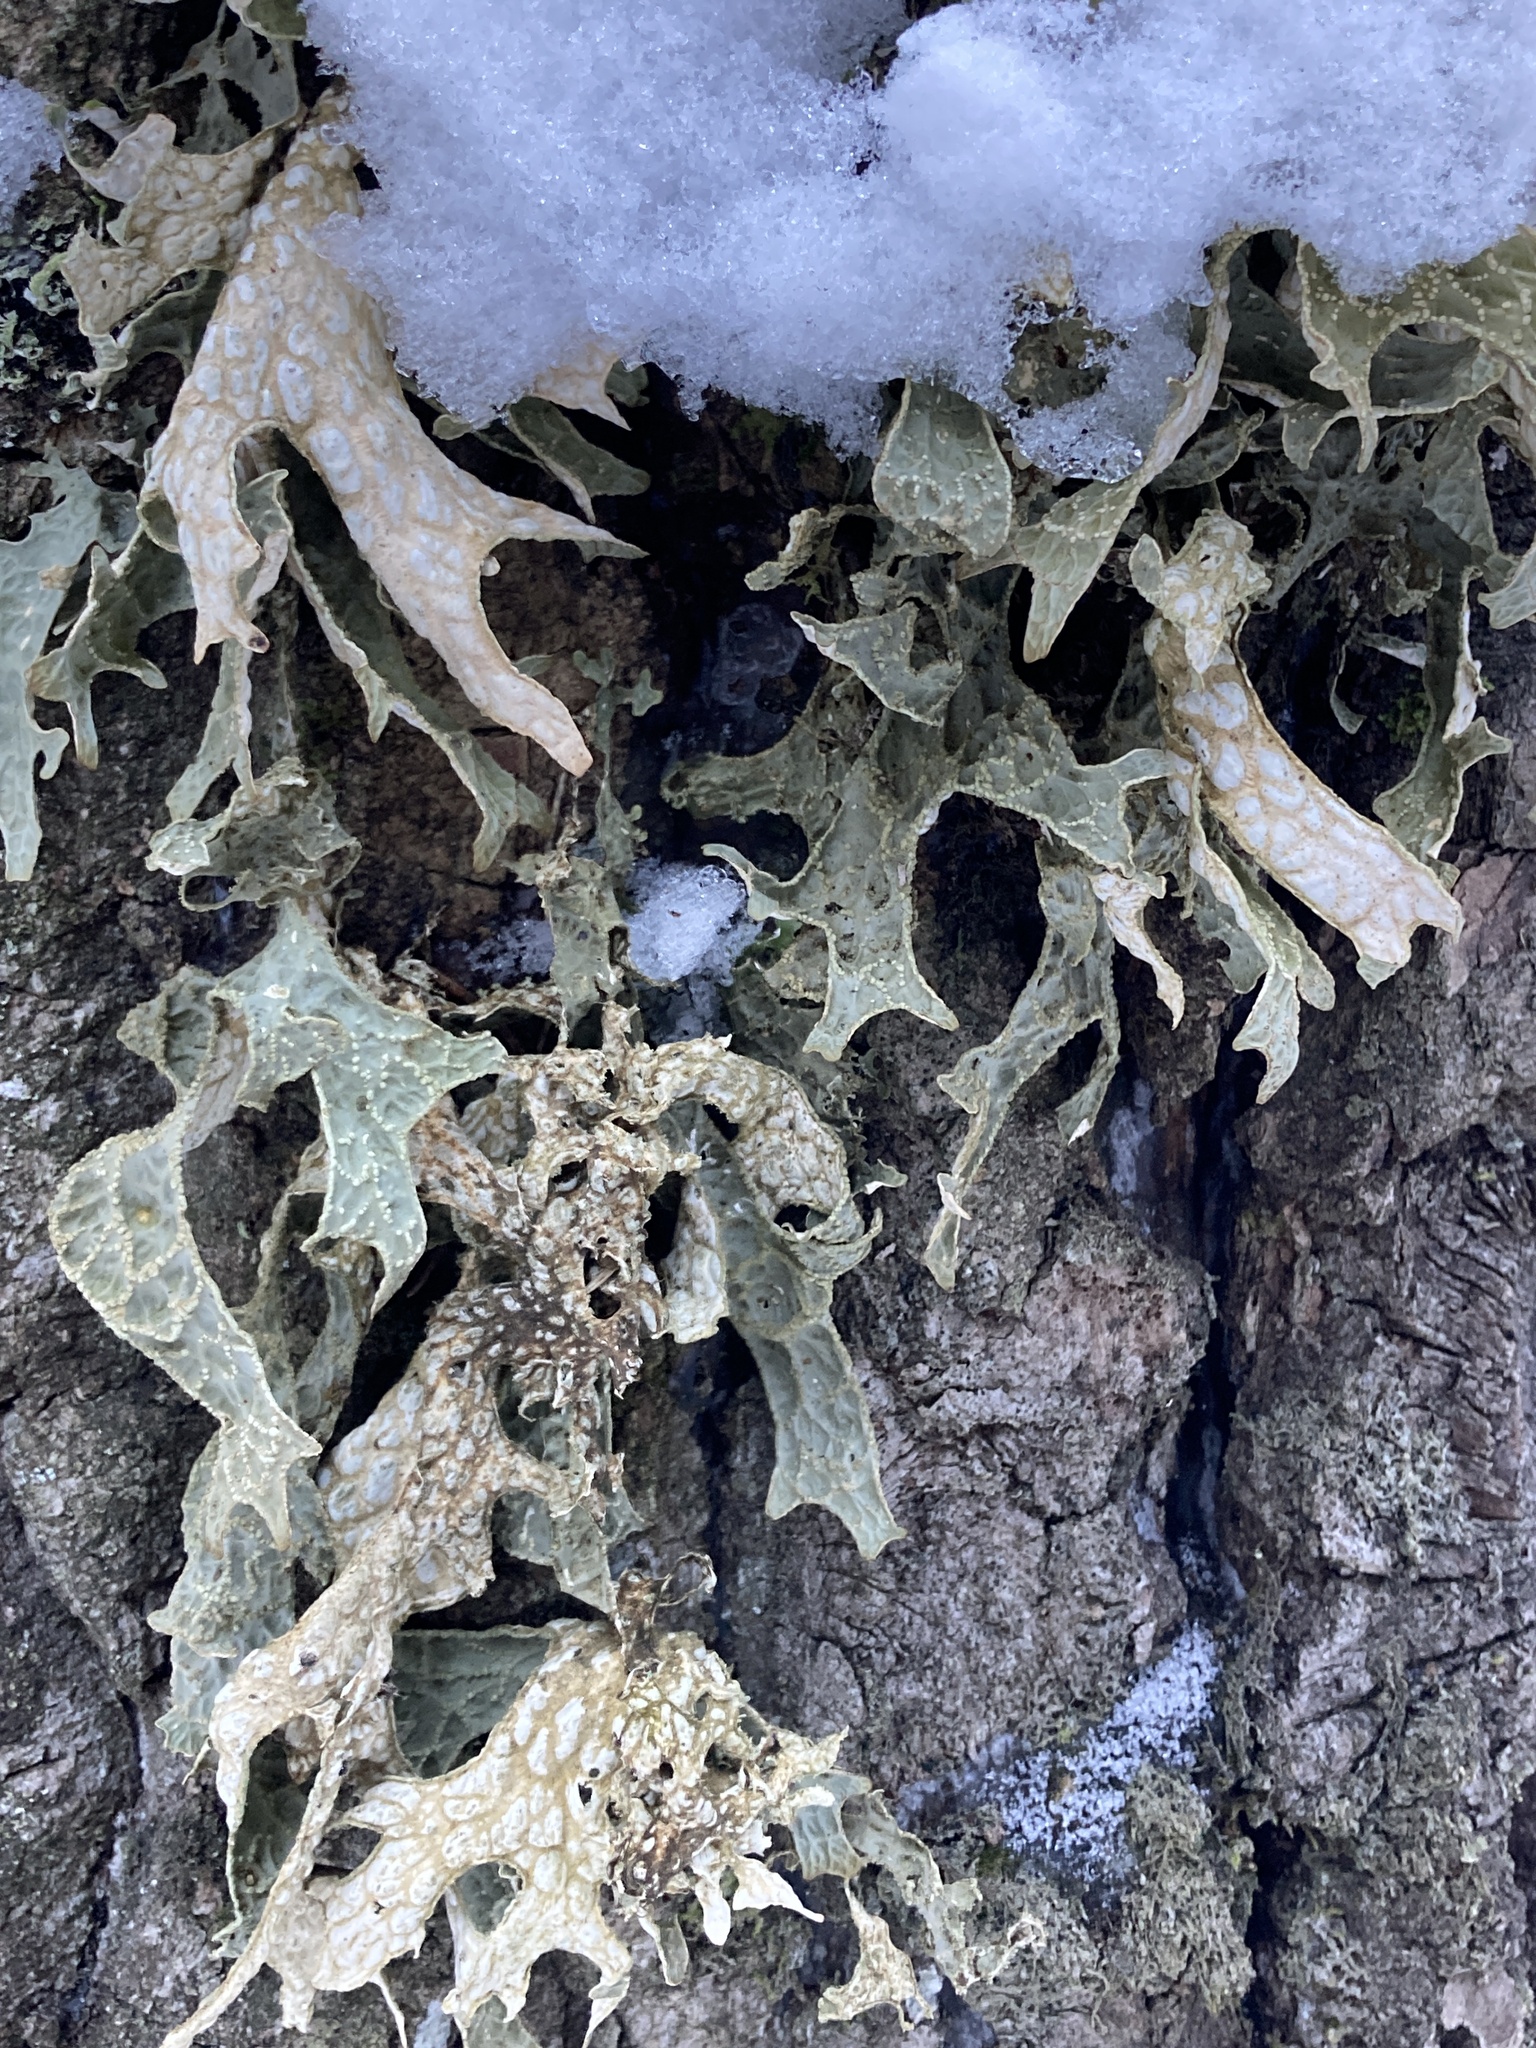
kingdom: Fungi
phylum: Ascomycota
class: Lecanoromycetes
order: Peltigerales
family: Lobariaceae
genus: Lobaria
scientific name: Lobaria pulmonaria
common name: Lungwort
